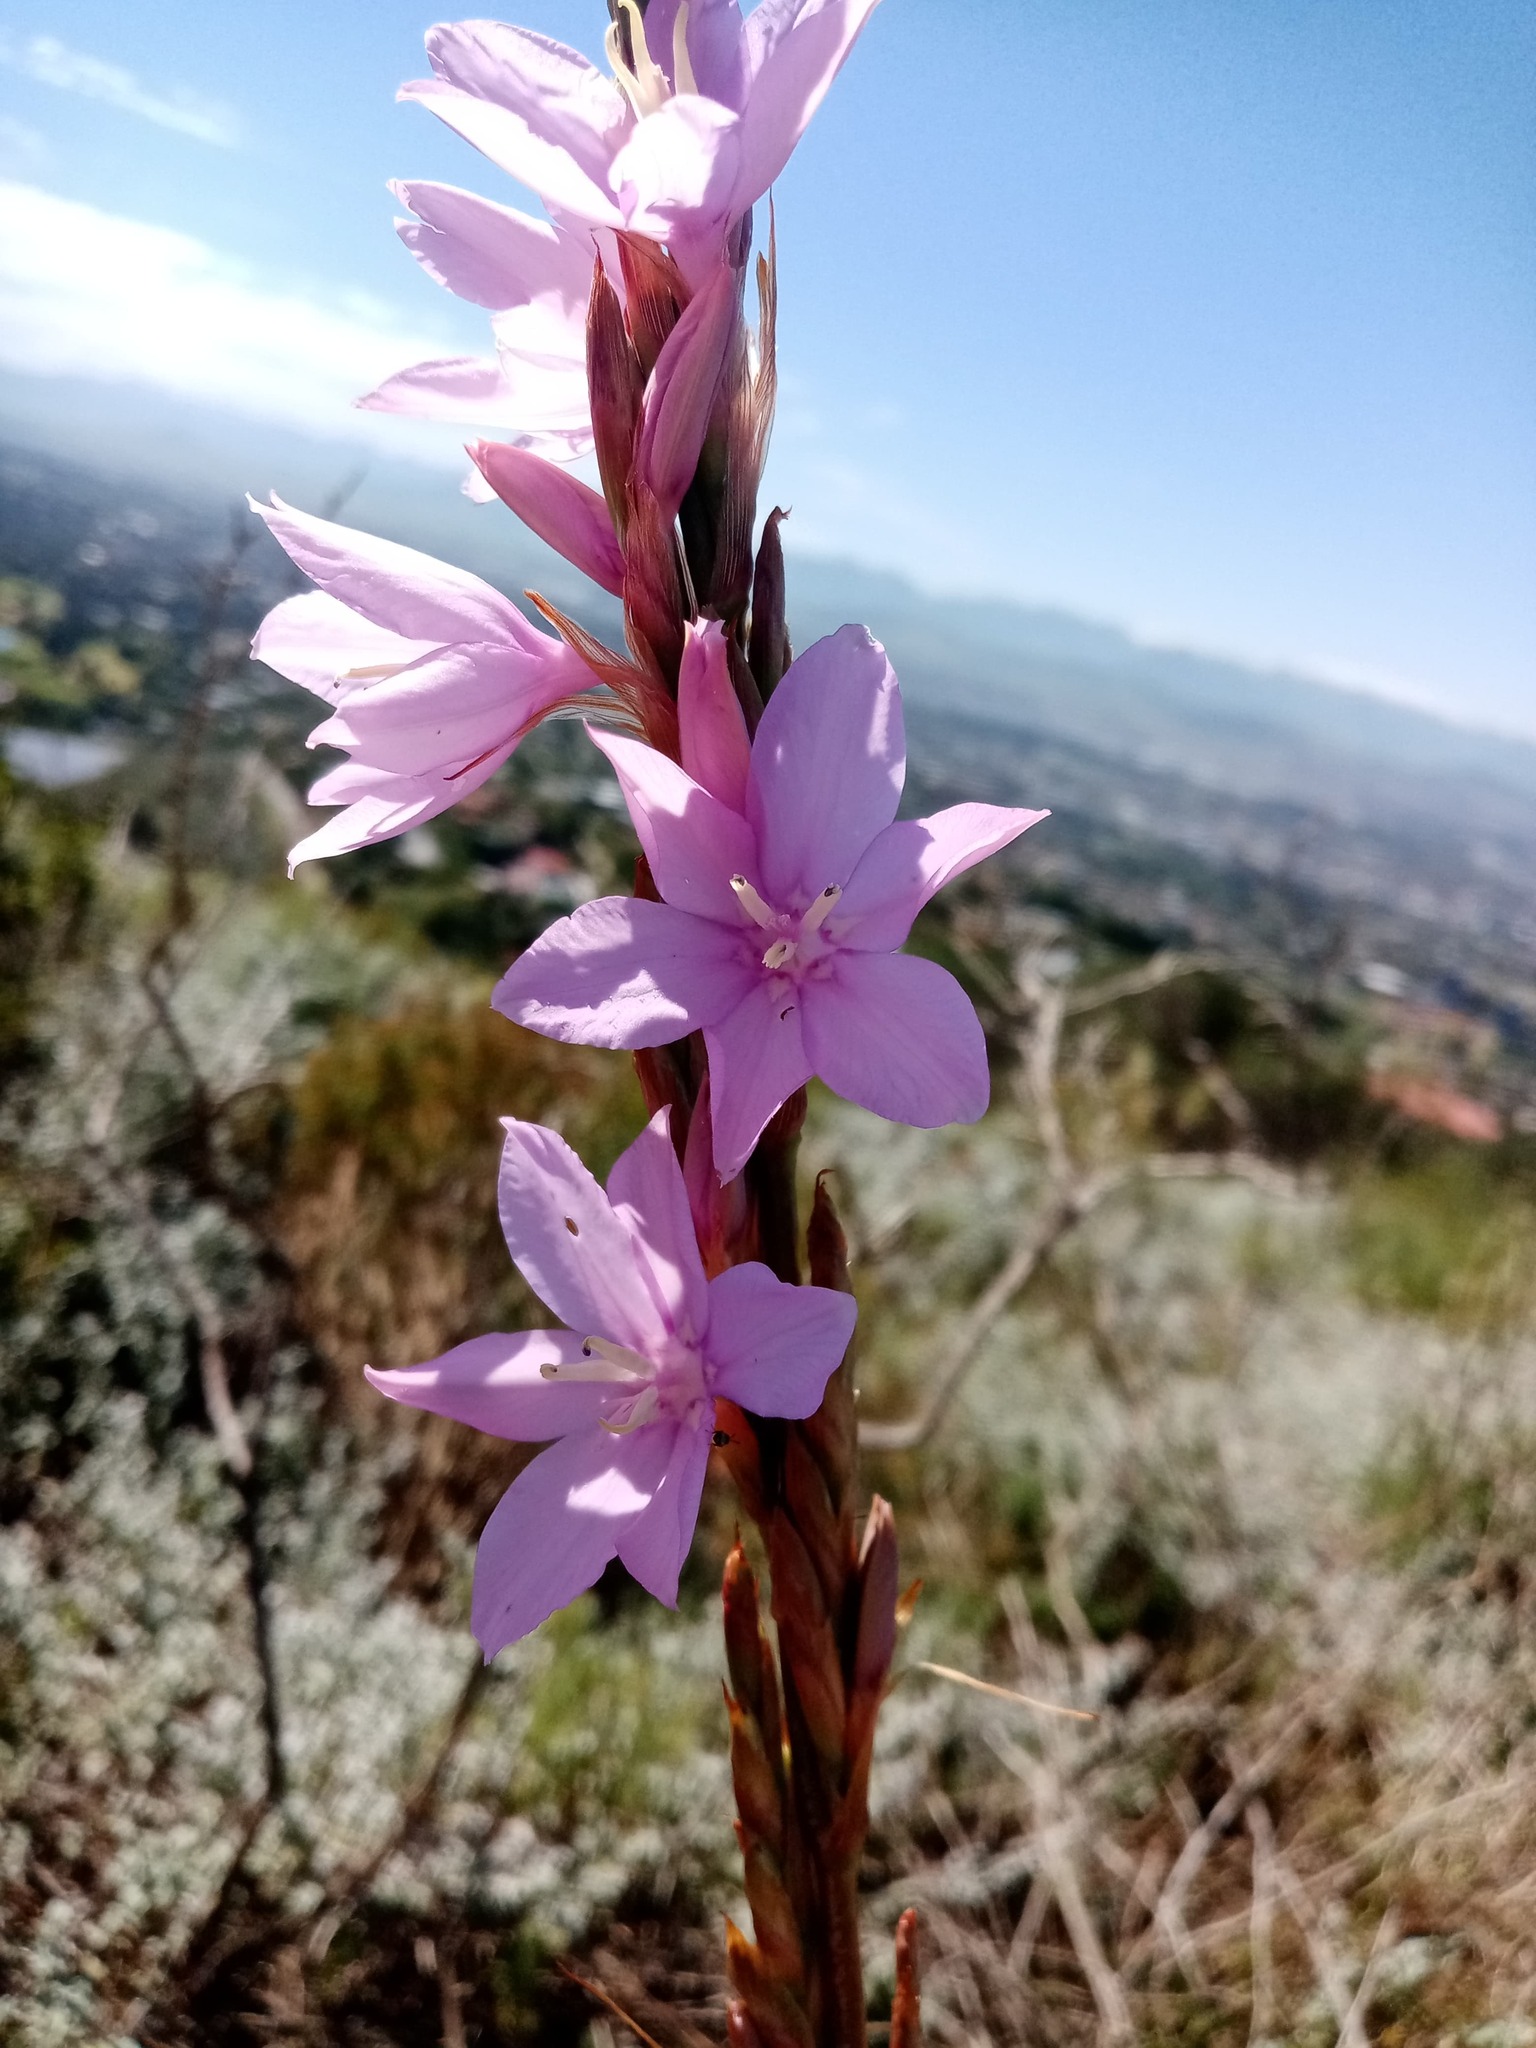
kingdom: Plantae
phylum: Tracheophyta
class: Liliopsida
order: Asparagales
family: Iridaceae
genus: Watsonia
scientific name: Watsonia marginata
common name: Fragrant bugle-lily
